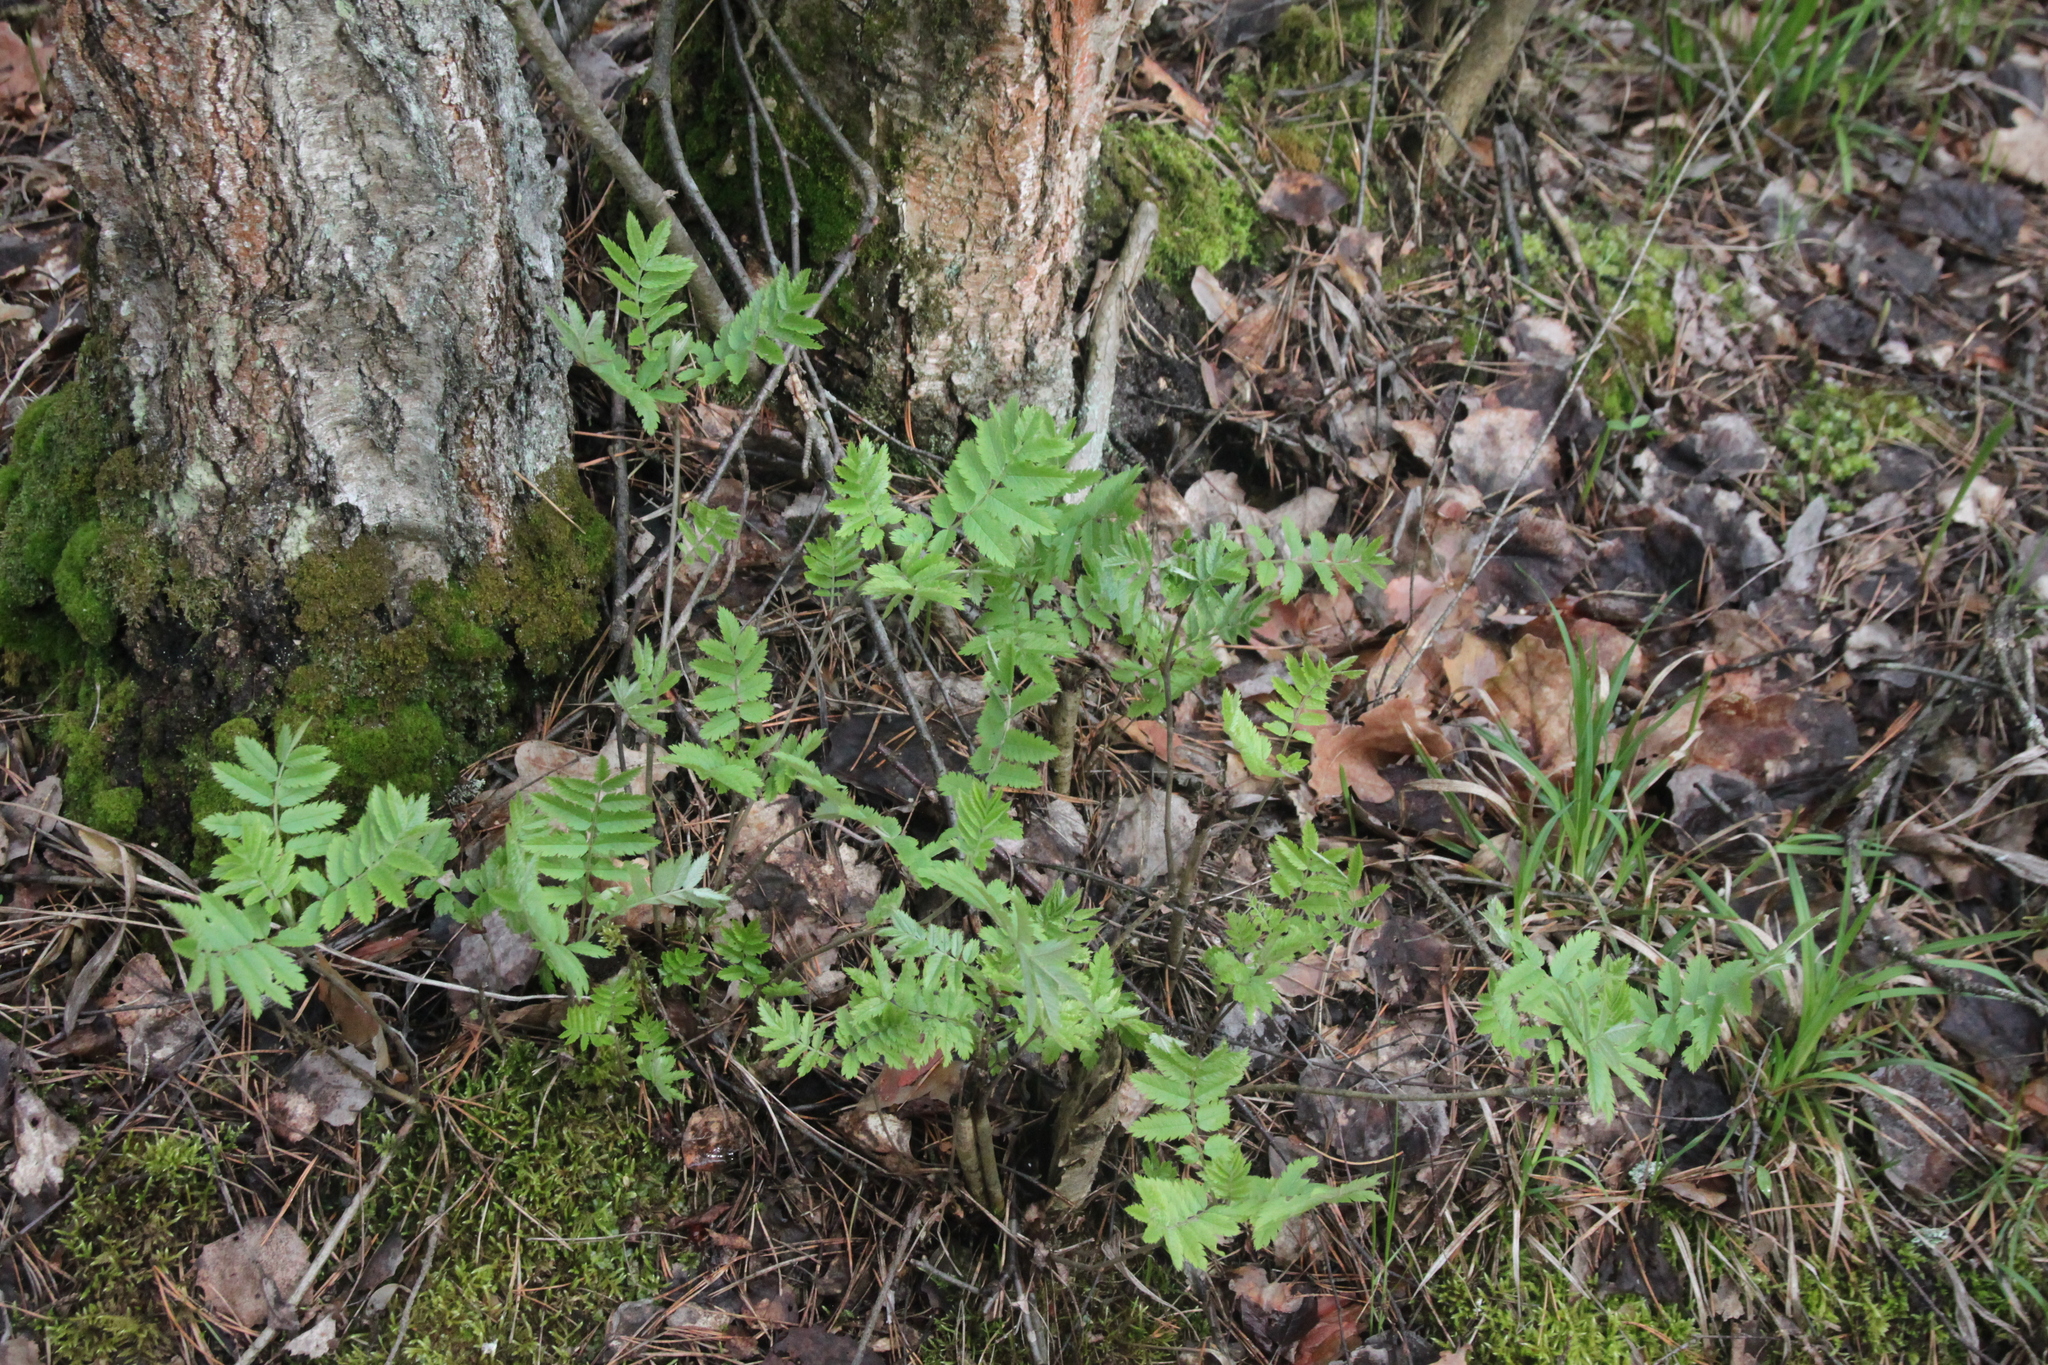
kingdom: Plantae
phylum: Tracheophyta
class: Magnoliopsida
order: Rosales
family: Rosaceae
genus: Sorbus
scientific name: Sorbus aucuparia
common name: Rowan
